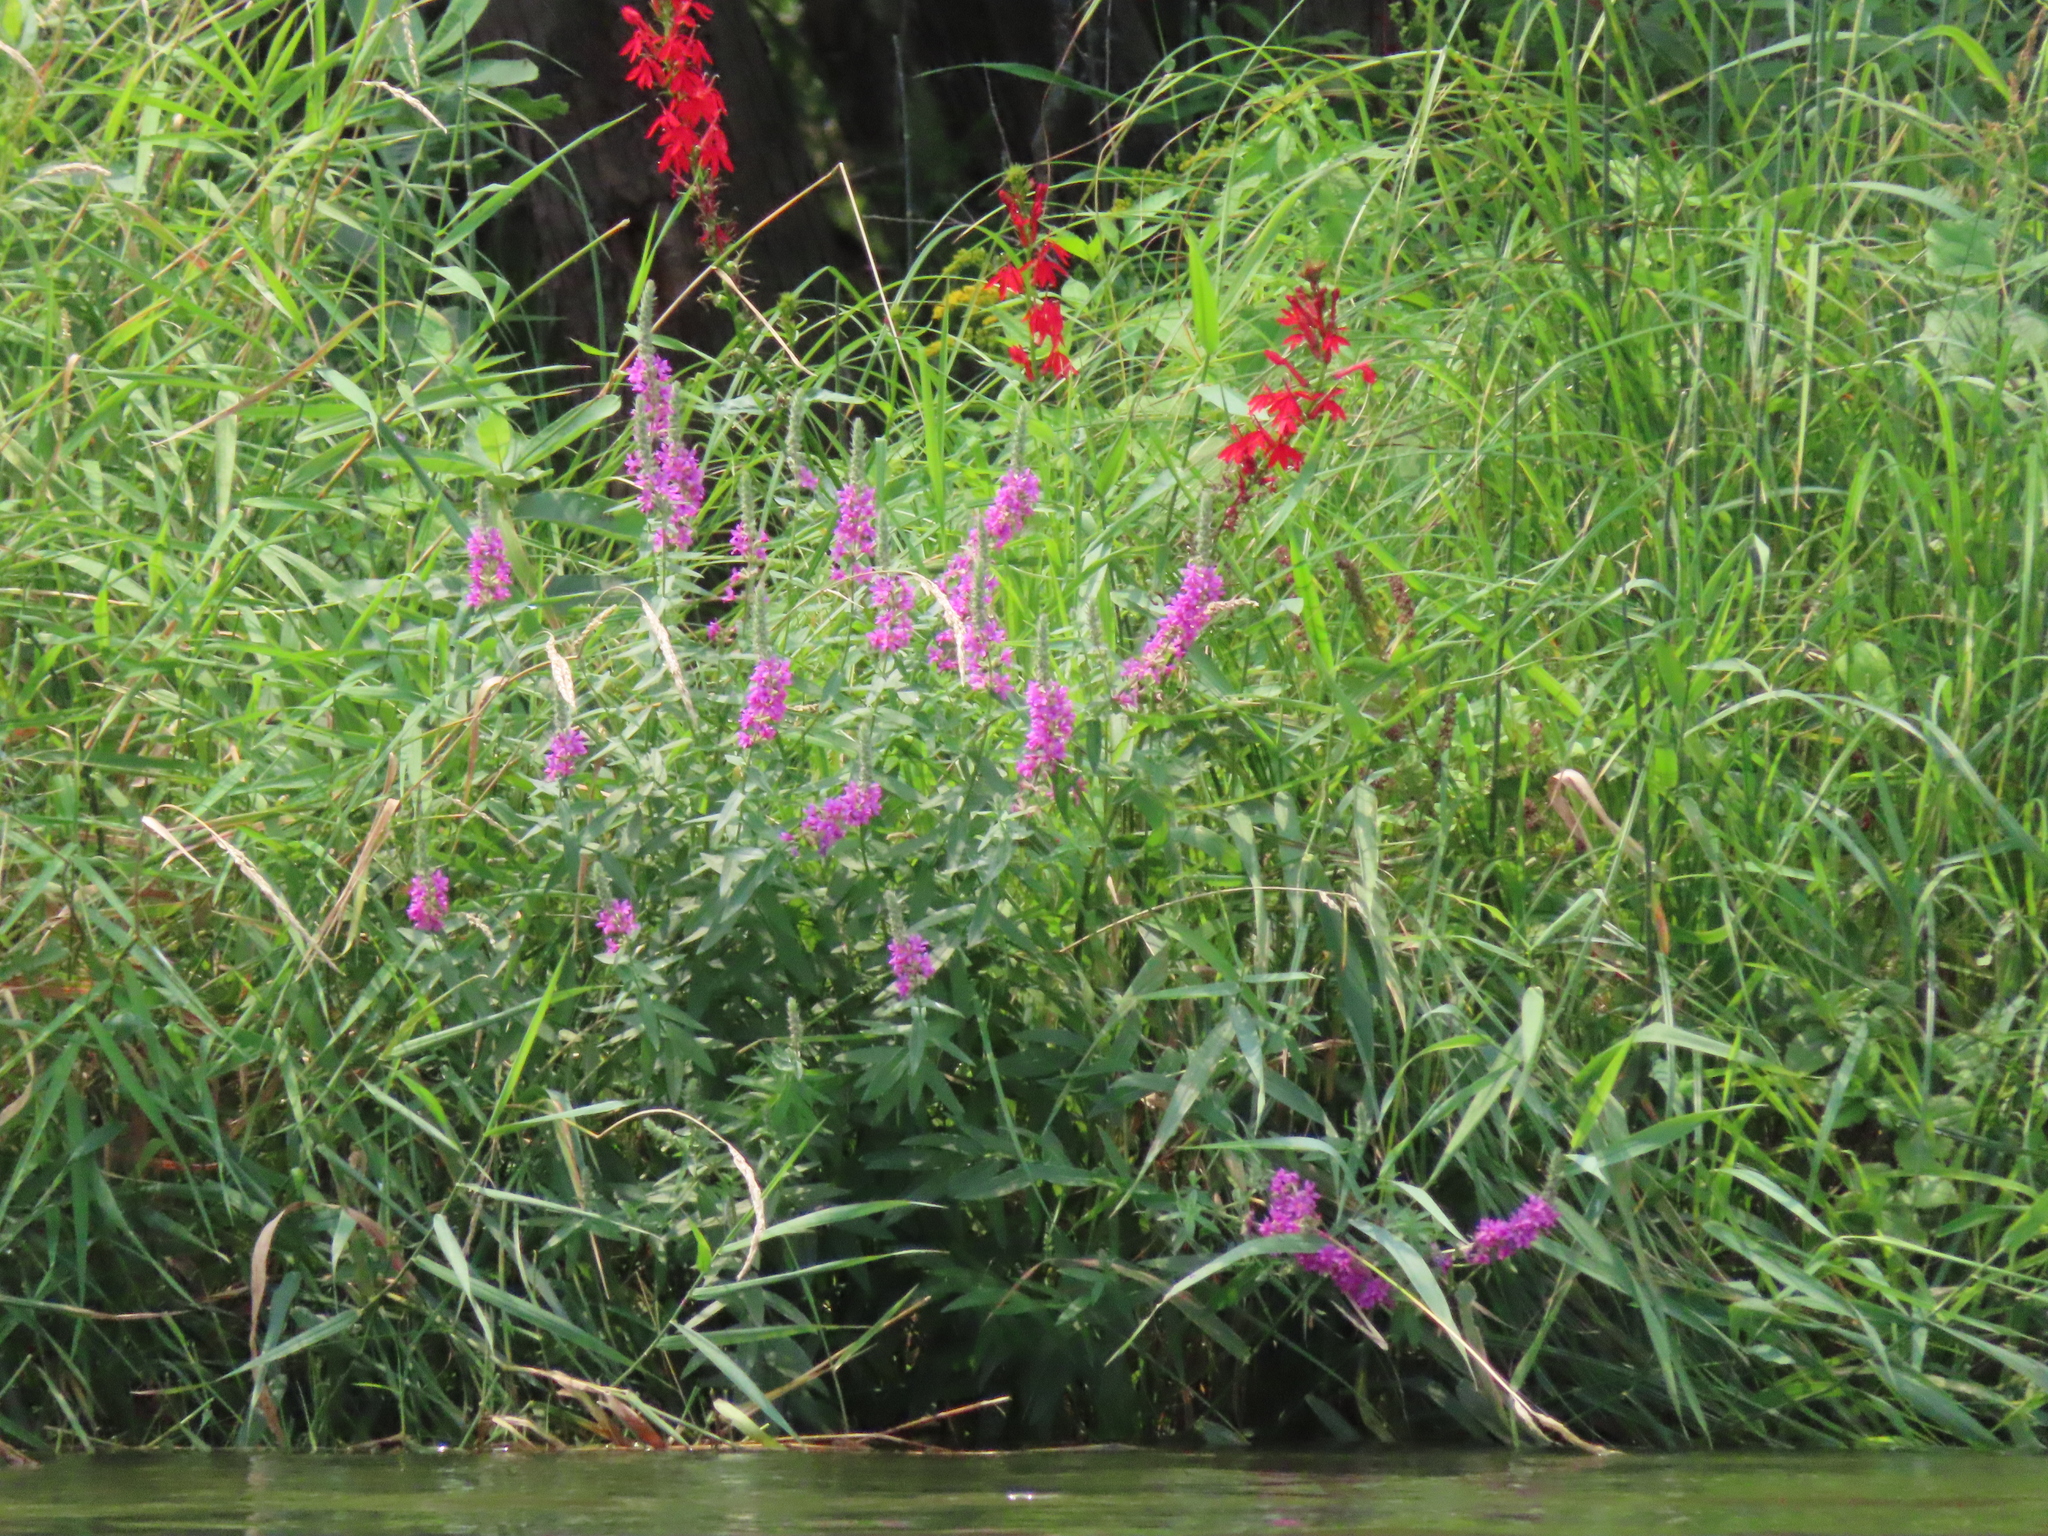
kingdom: Plantae
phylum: Tracheophyta
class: Magnoliopsida
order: Myrtales
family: Lythraceae
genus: Lythrum
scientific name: Lythrum salicaria
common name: Purple loosestrife
